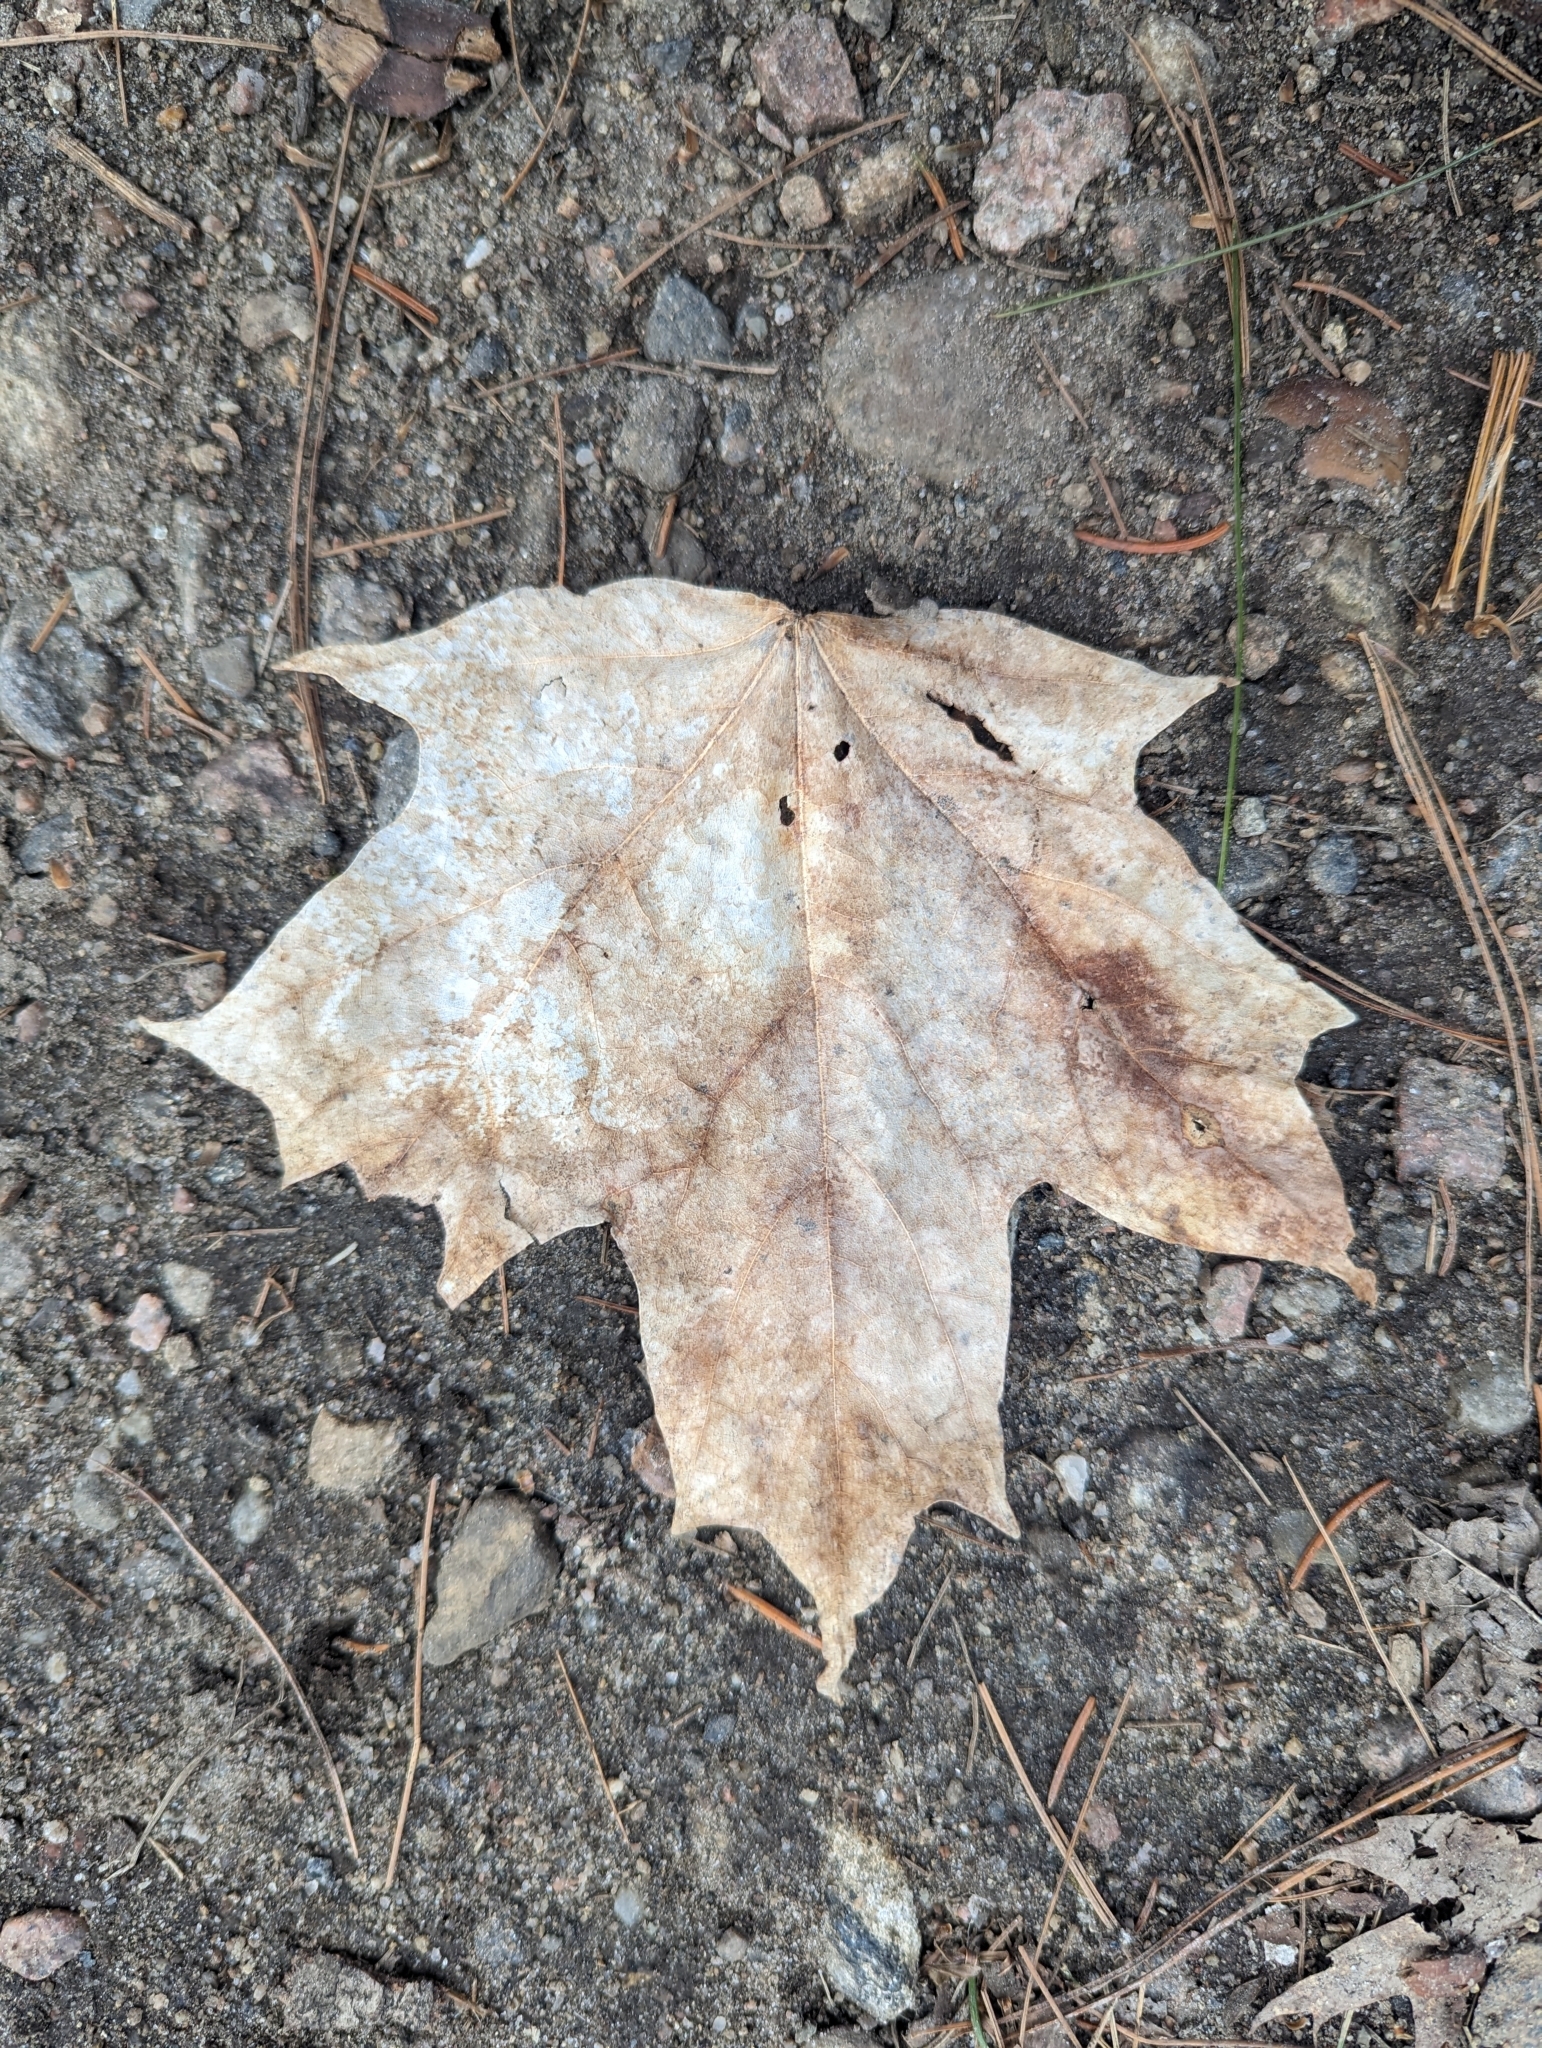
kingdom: Plantae
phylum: Tracheophyta
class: Magnoliopsida
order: Sapindales
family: Sapindaceae
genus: Acer
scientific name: Acer saccharum
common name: Sugar maple
